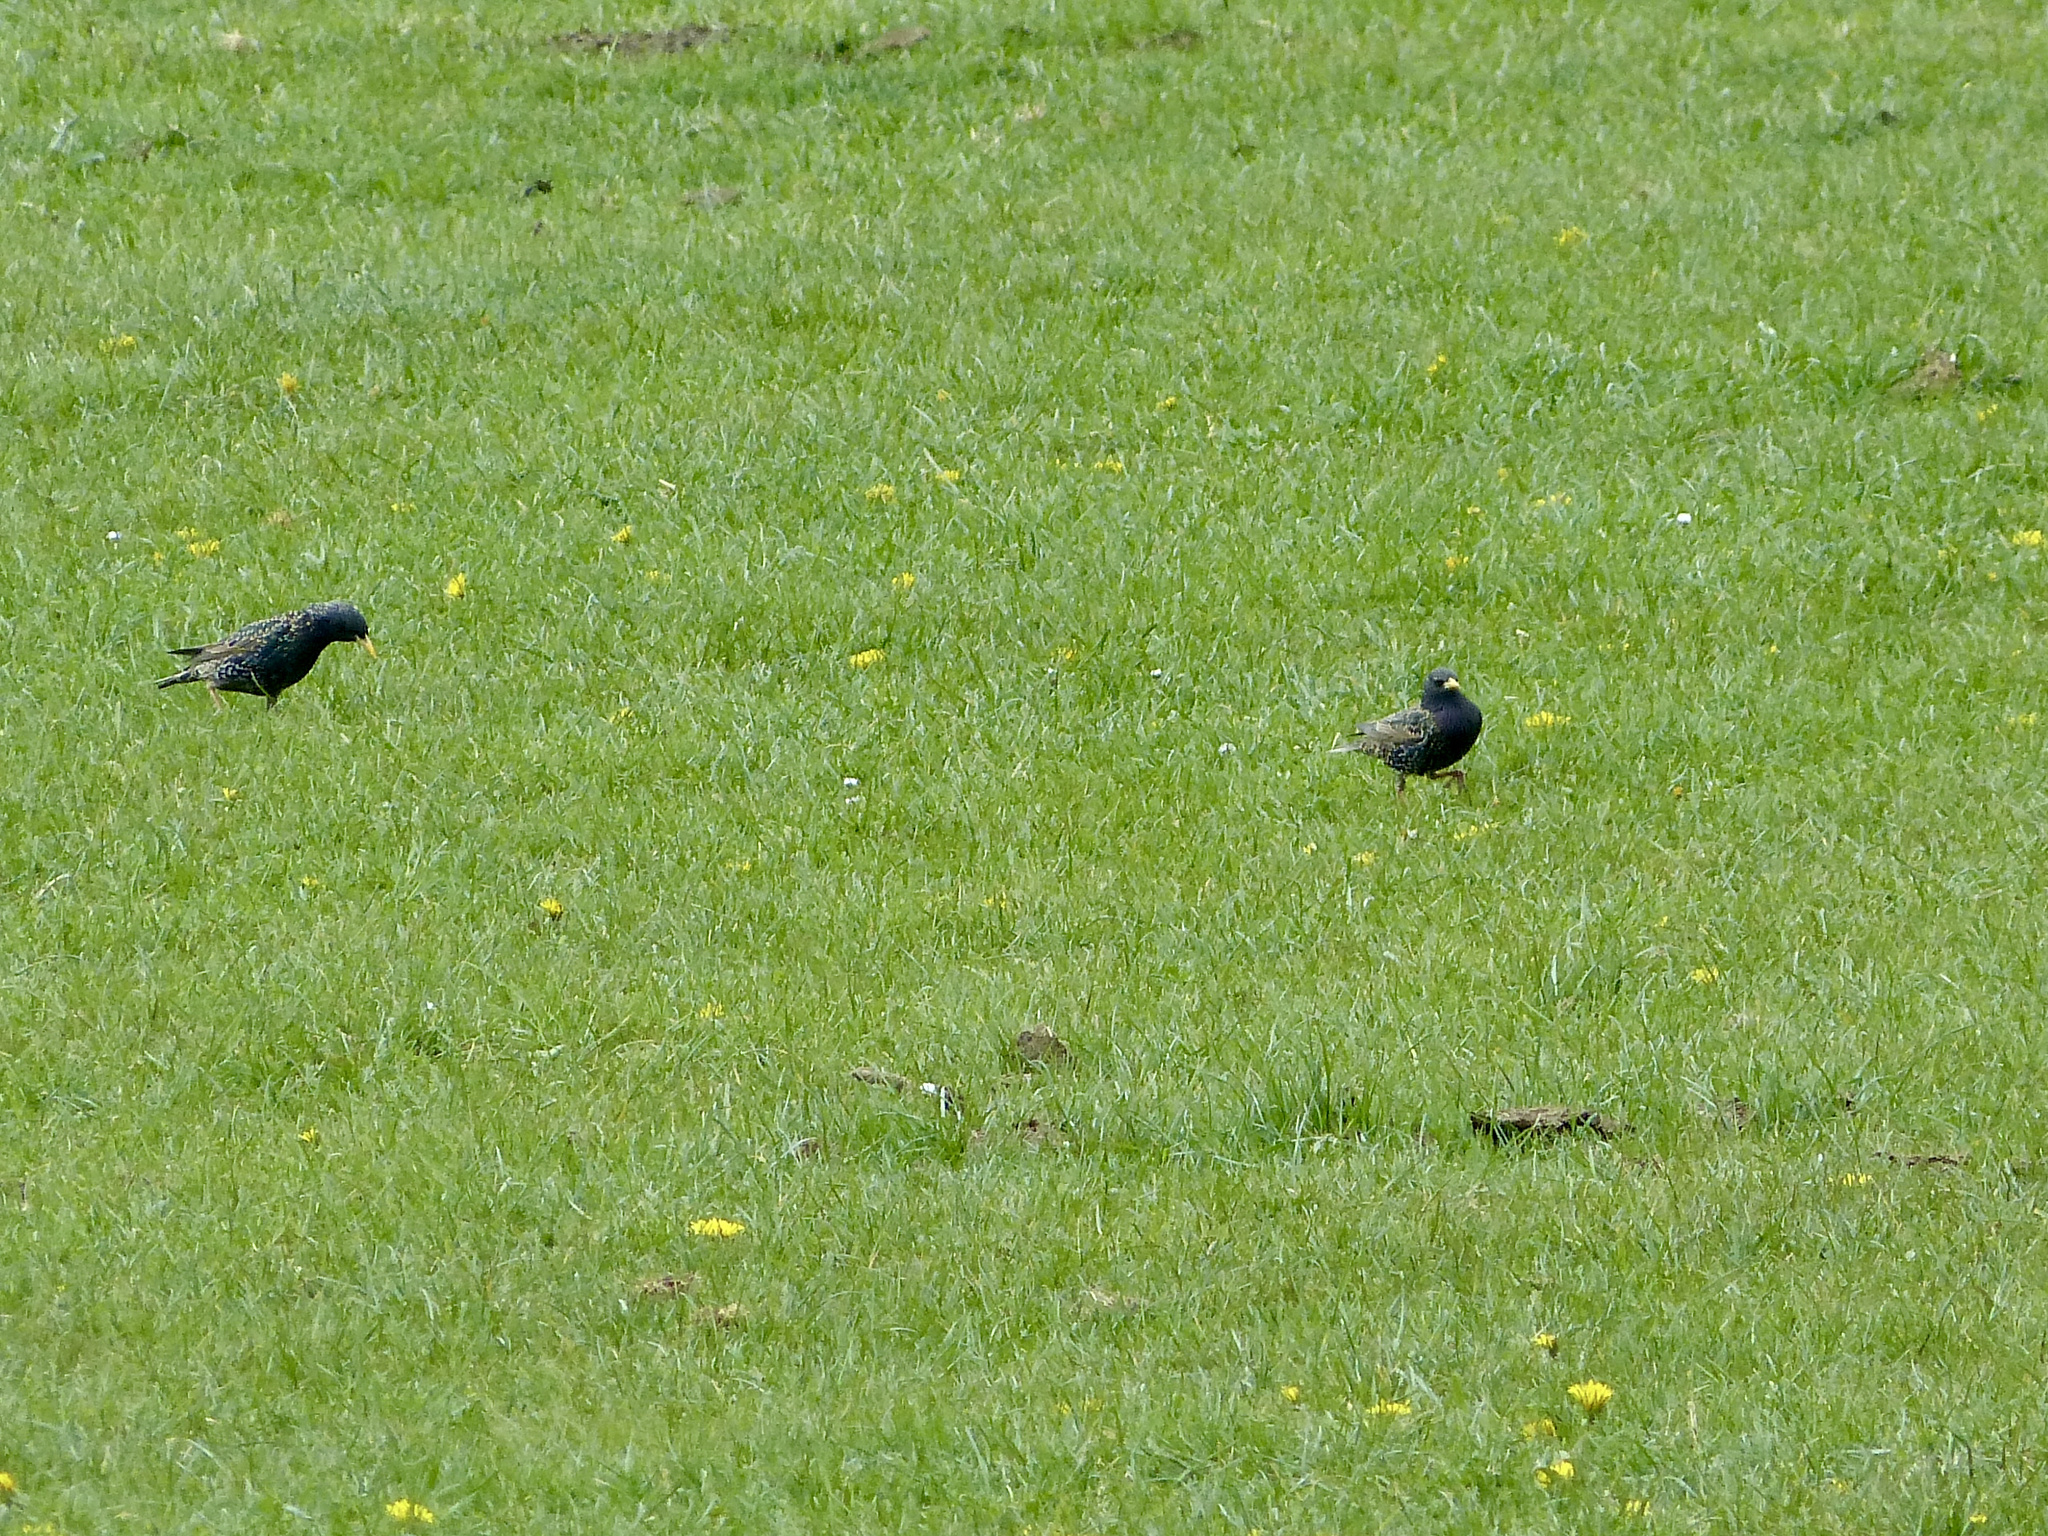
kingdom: Animalia
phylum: Chordata
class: Aves
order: Passeriformes
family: Sturnidae
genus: Sturnus
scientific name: Sturnus vulgaris
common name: Common starling
